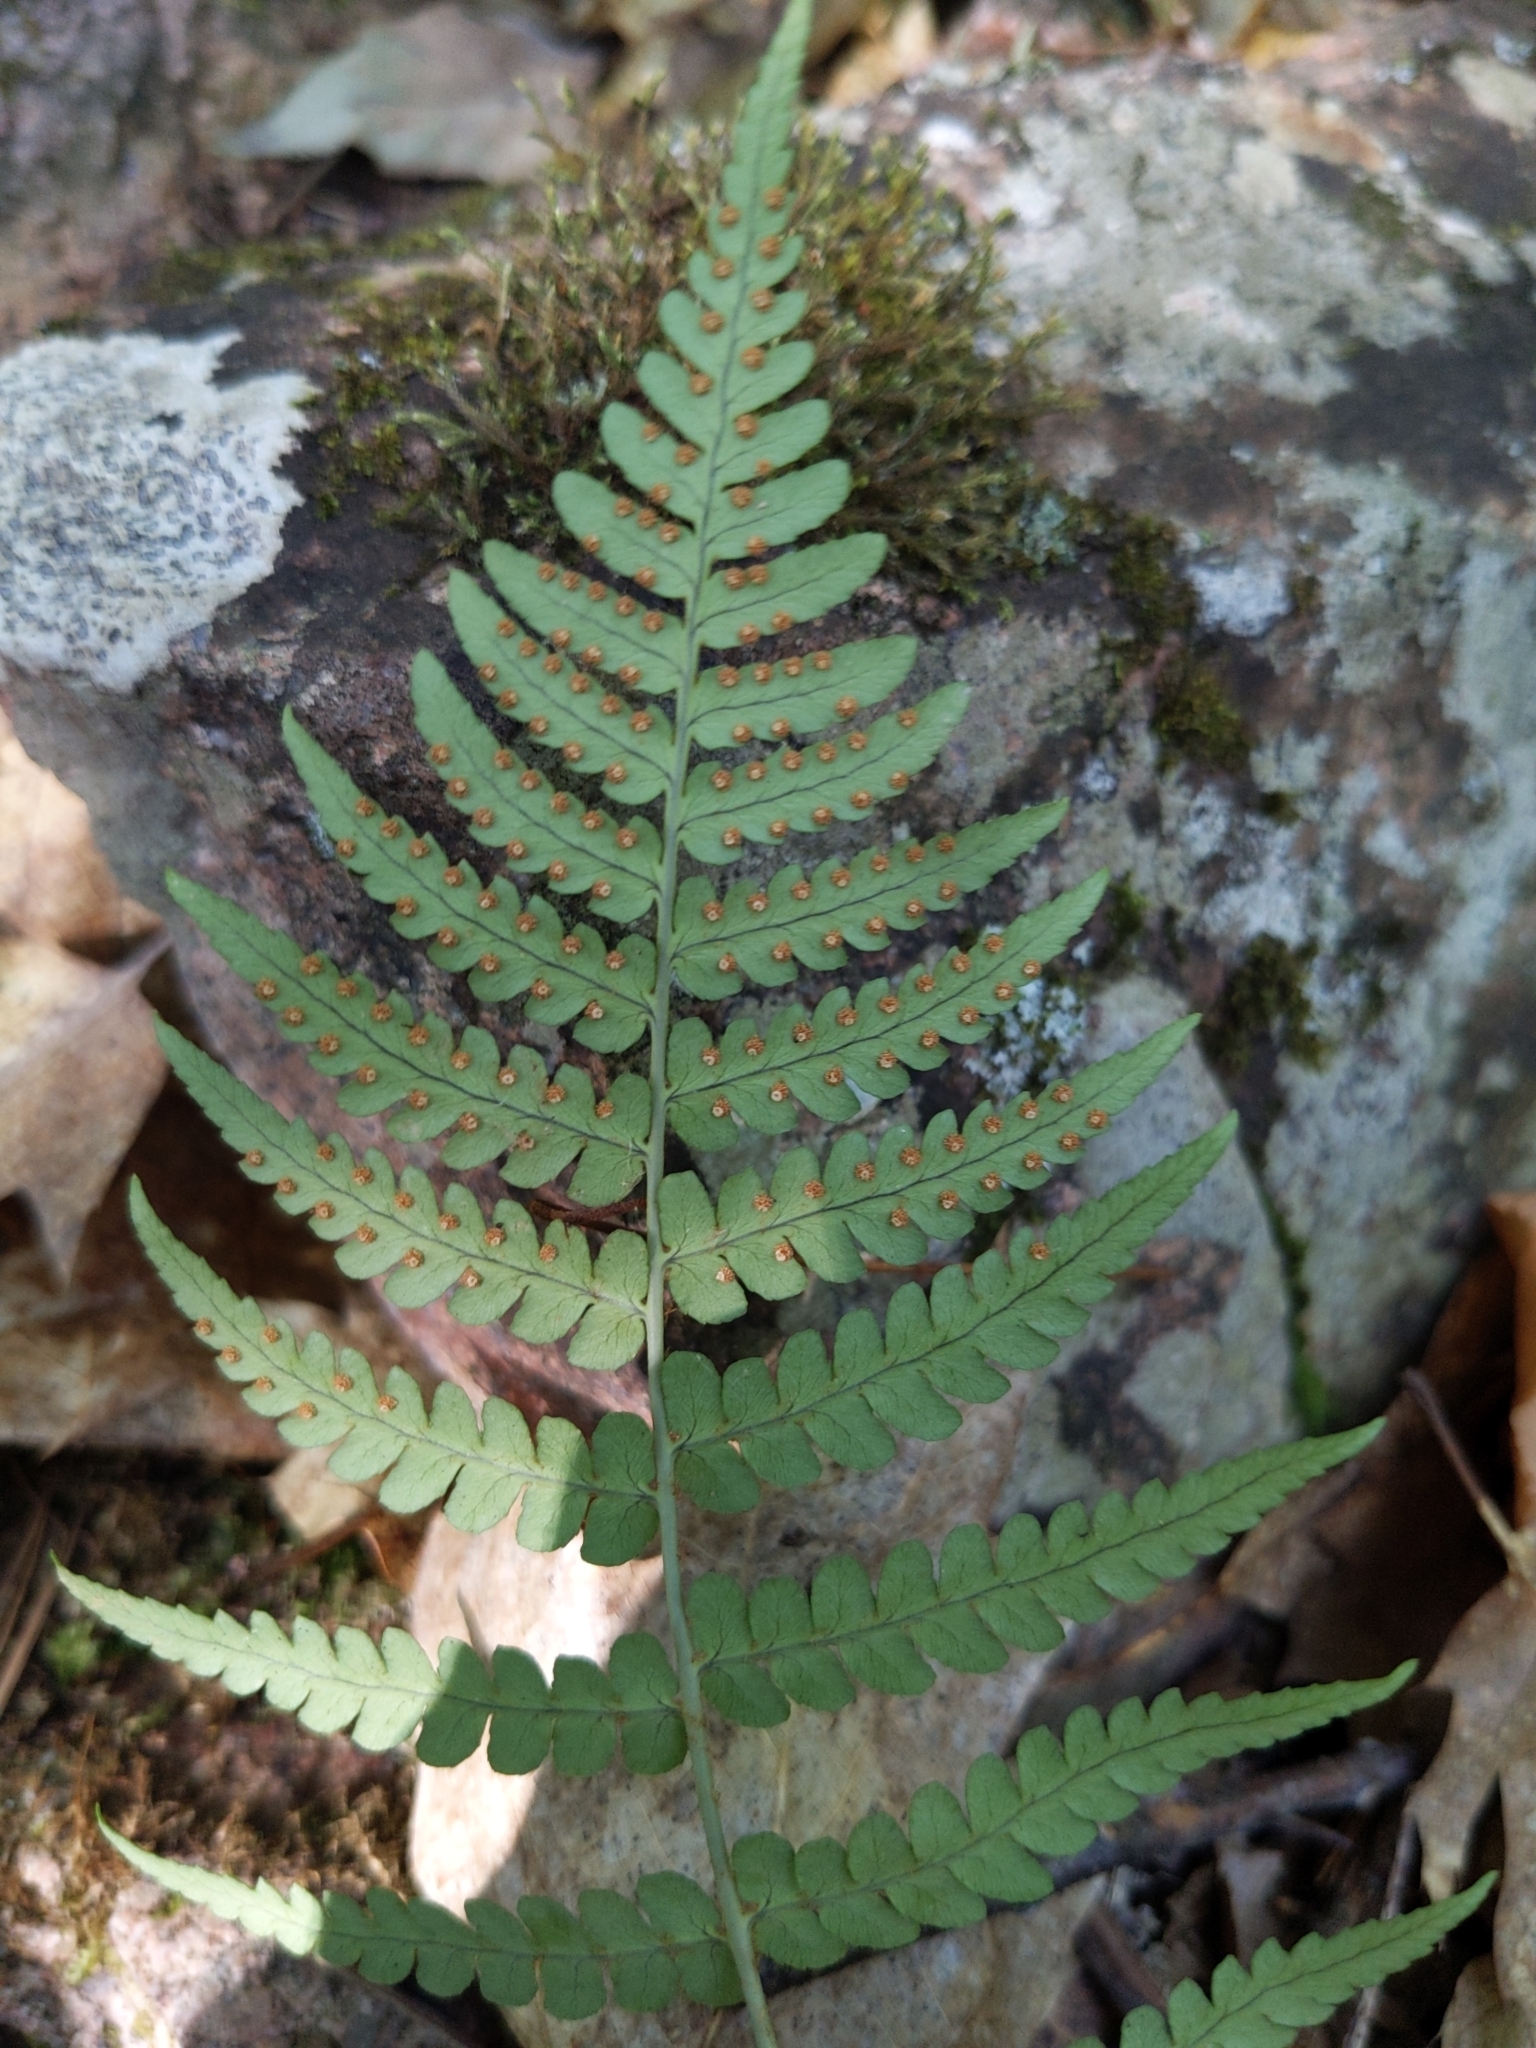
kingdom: Plantae
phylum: Tracheophyta
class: Polypodiopsida
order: Polypodiales
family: Dryopteridaceae
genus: Dryopteris
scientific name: Dryopteris marginalis
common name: Marginal wood fern
